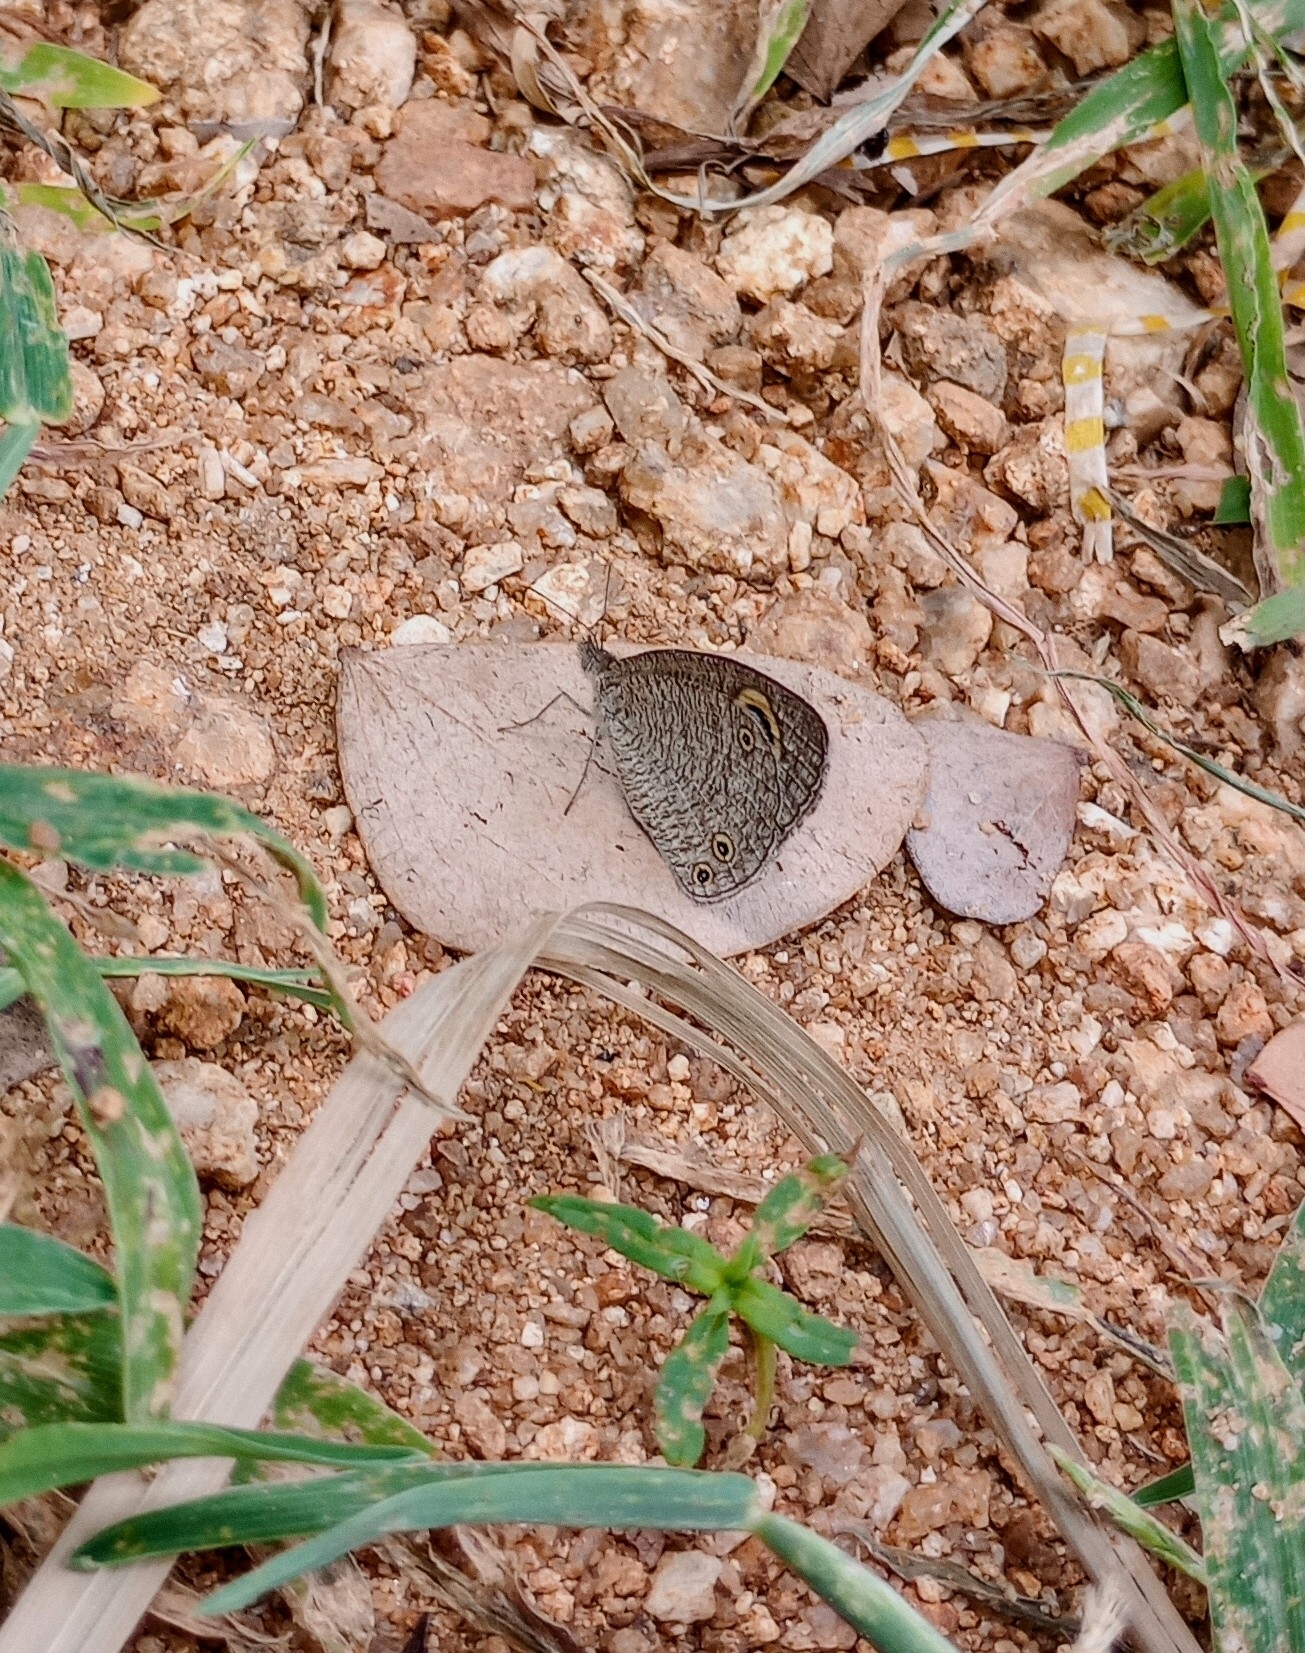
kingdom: Animalia
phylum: Arthropoda
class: Insecta
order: Lepidoptera
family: Nymphalidae
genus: Ypthima
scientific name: Ypthima asterope
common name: African ringlet
